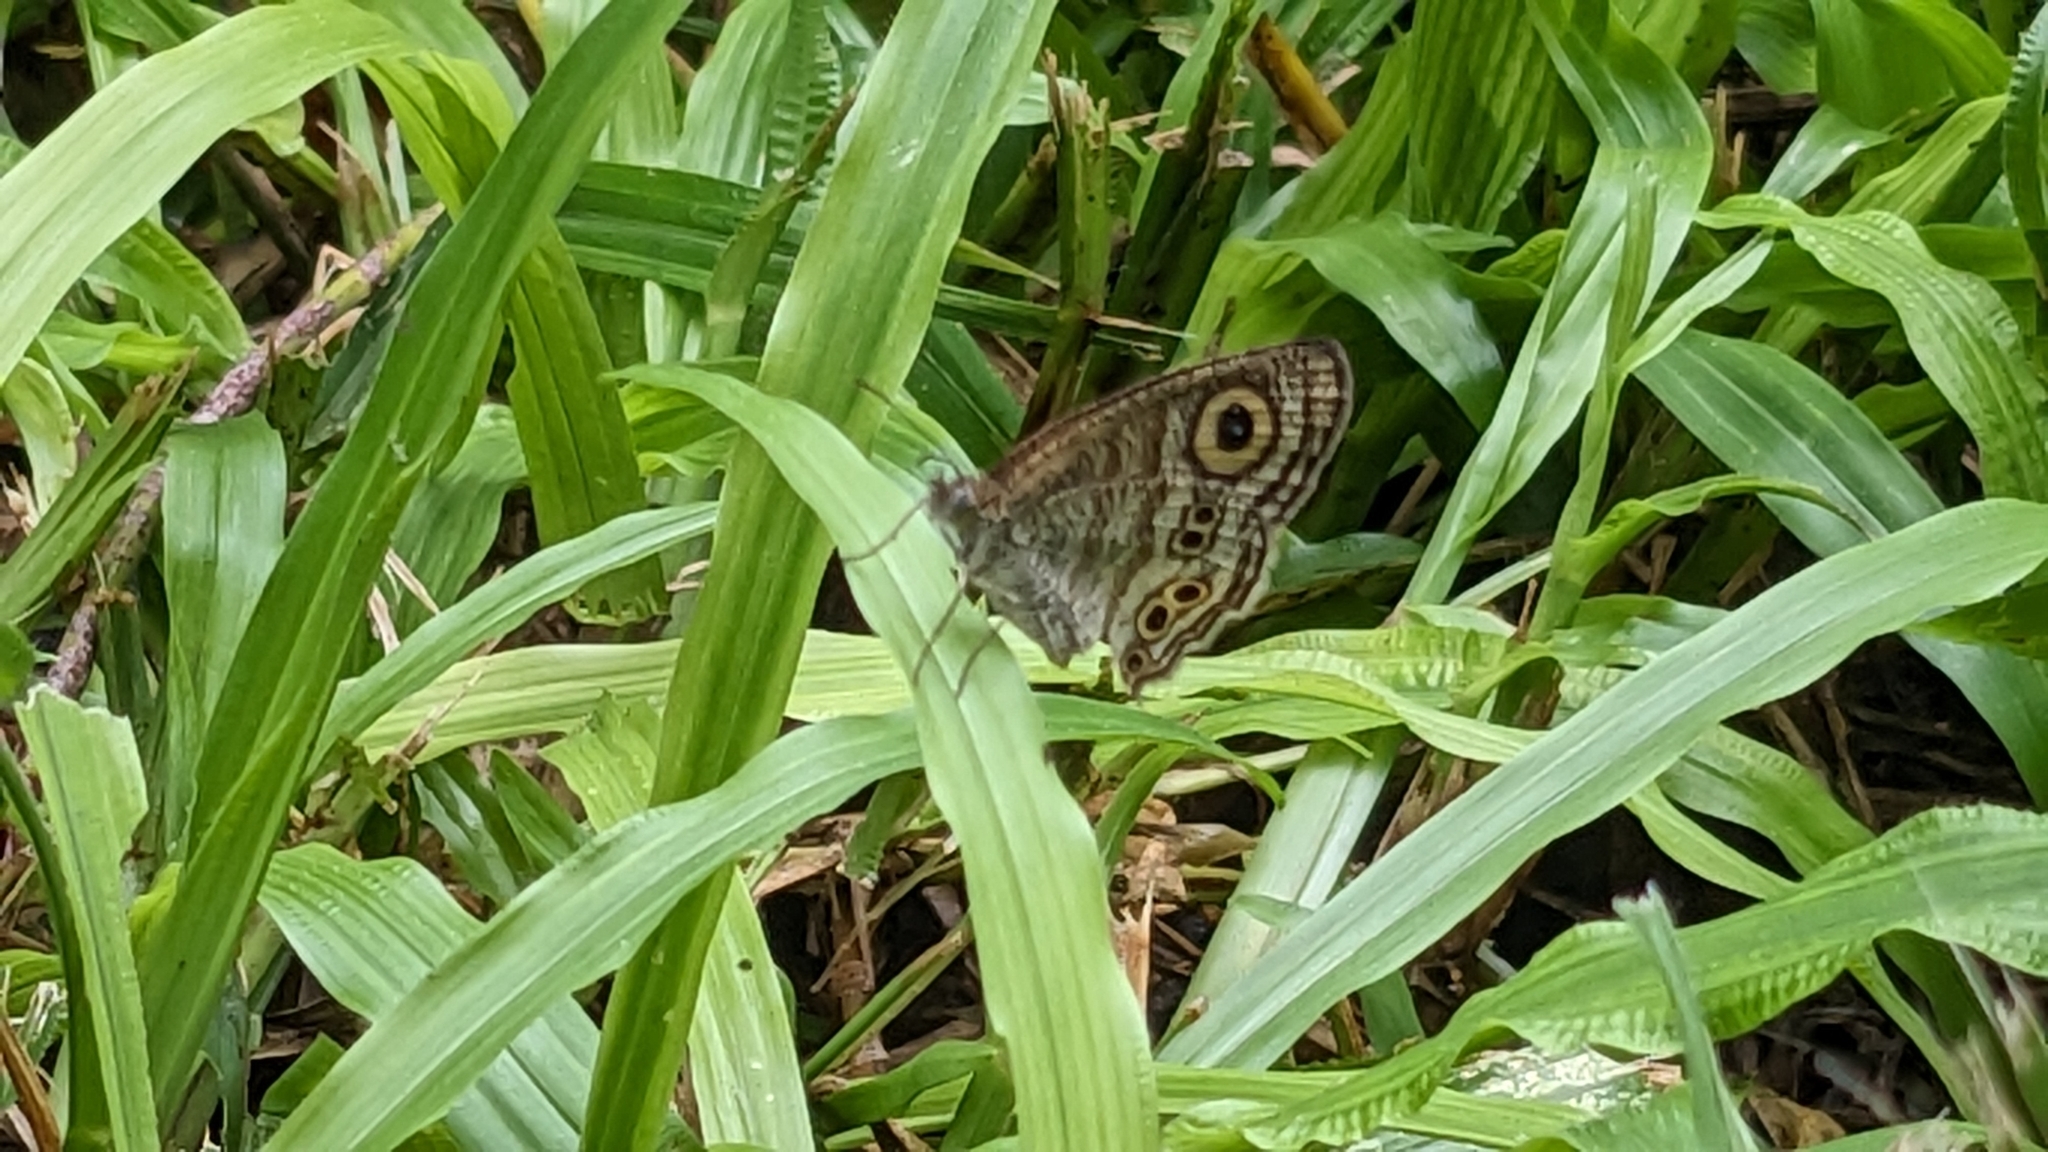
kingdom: Animalia
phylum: Arthropoda
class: Insecta
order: Lepidoptera
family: Nymphalidae
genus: Ypthima
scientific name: Ypthima stellera
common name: Philippine five-ring
